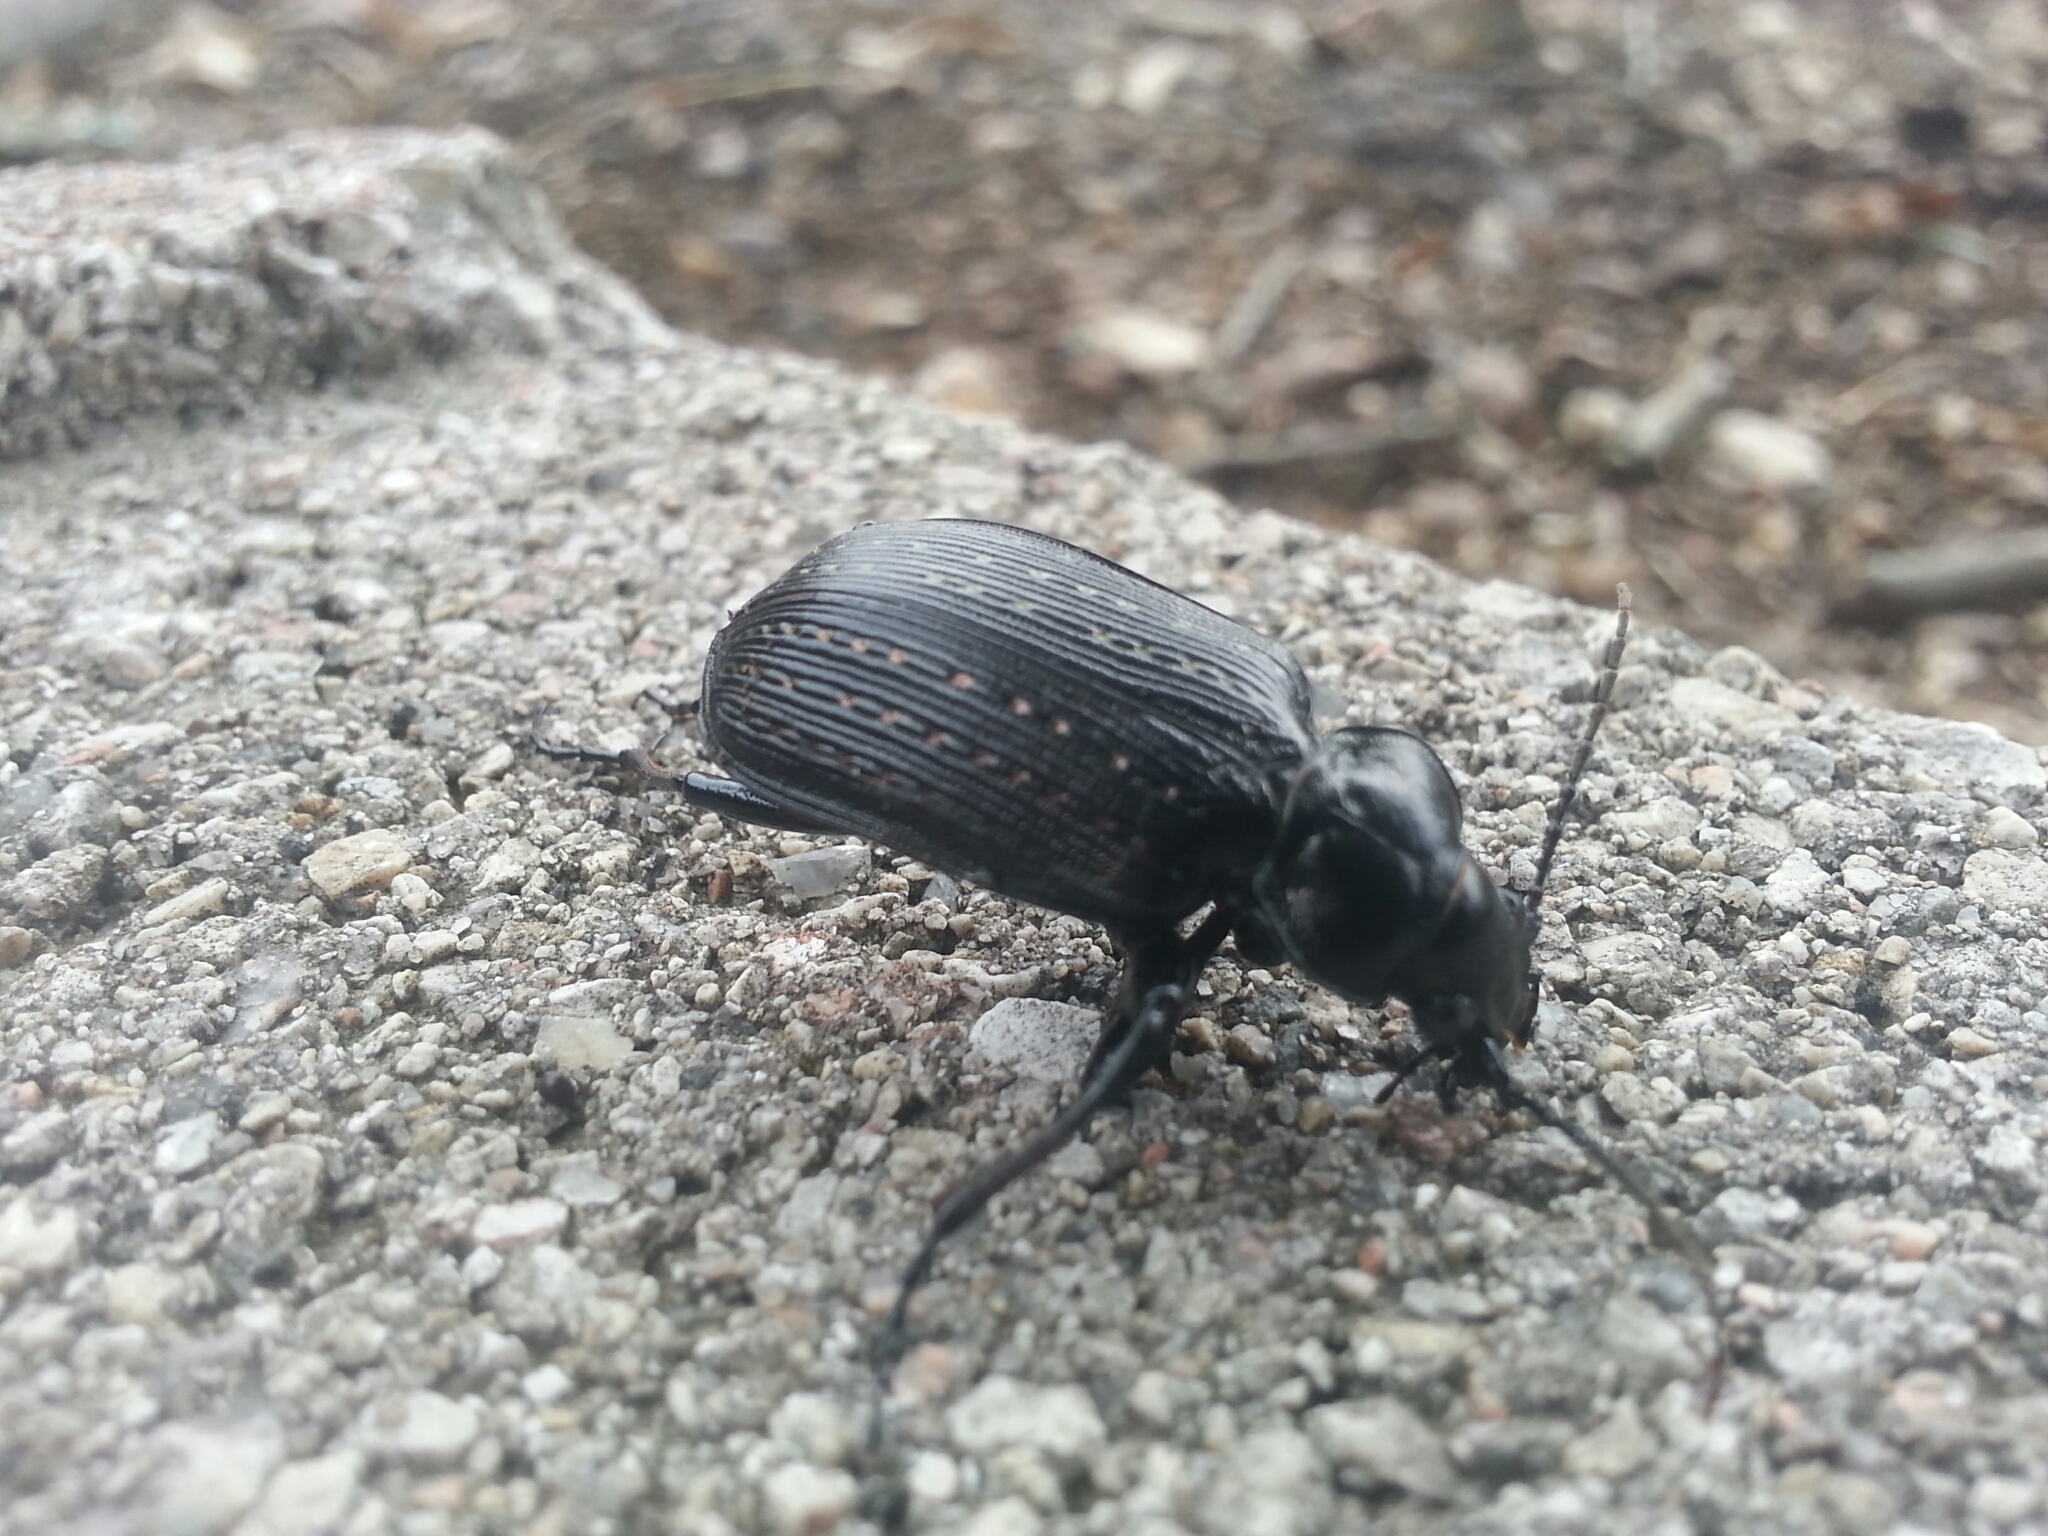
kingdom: Animalia
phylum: Arthropoda
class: Insecta
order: Coleoptera
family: Carabidae
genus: Calosoma
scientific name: Calosoma sayi
